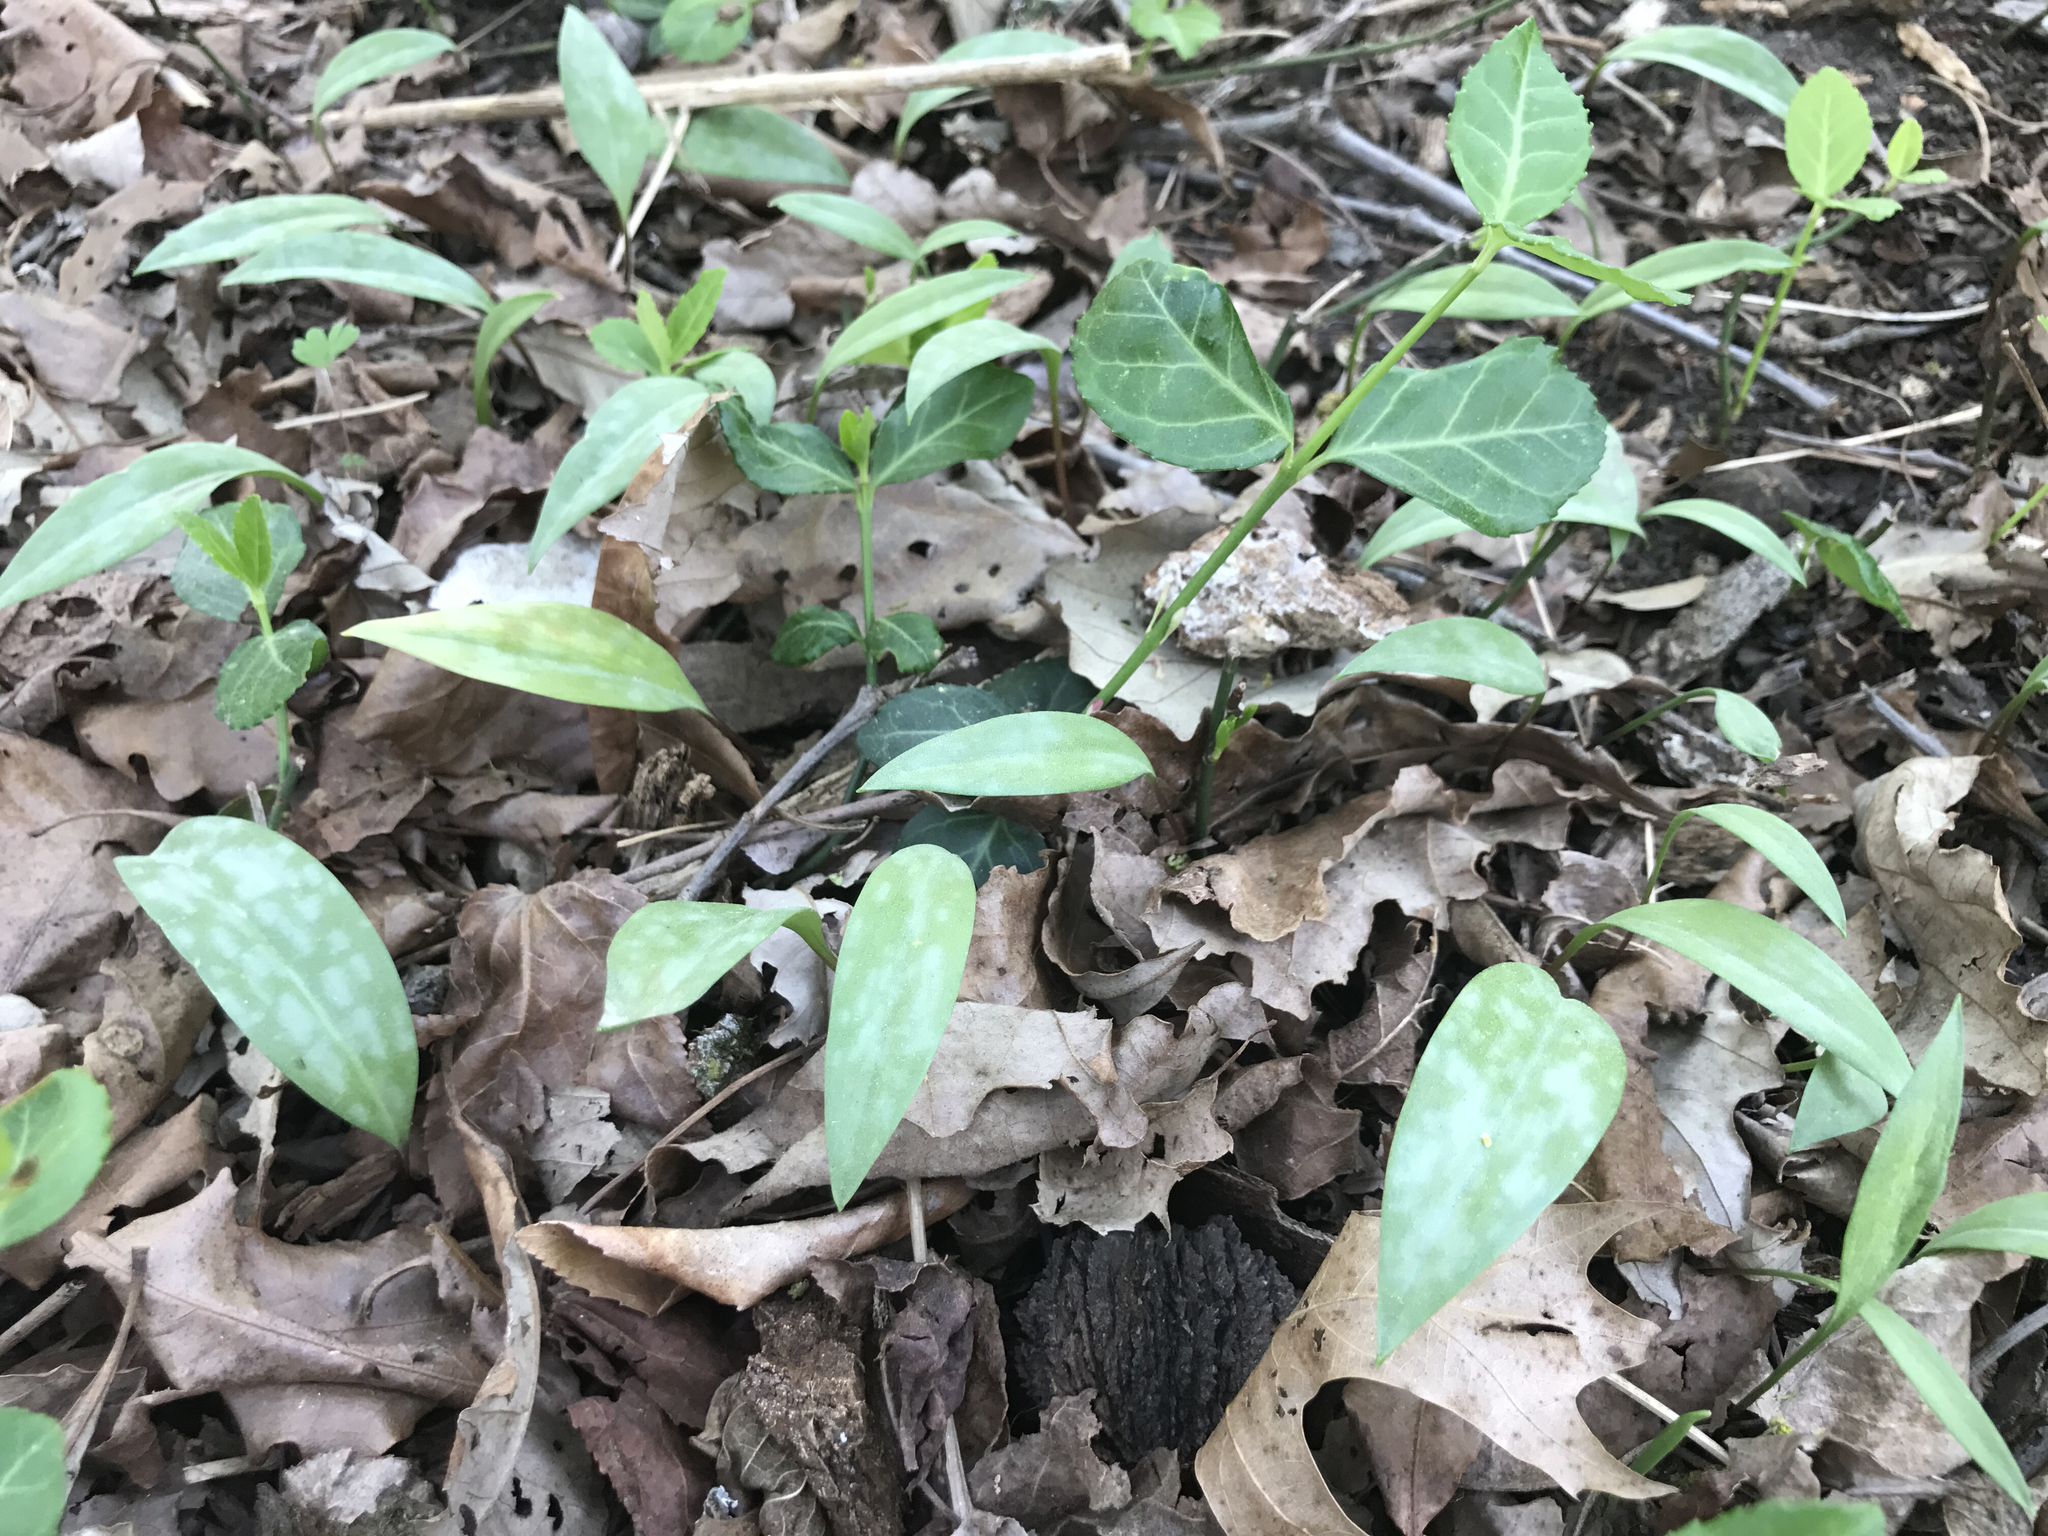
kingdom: Plantae
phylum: Tracheophyta
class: Liliopsida
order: Liliales
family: Liliaceae
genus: Erythronium
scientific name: Erythronium americanum
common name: Yellow adder's-tongue
